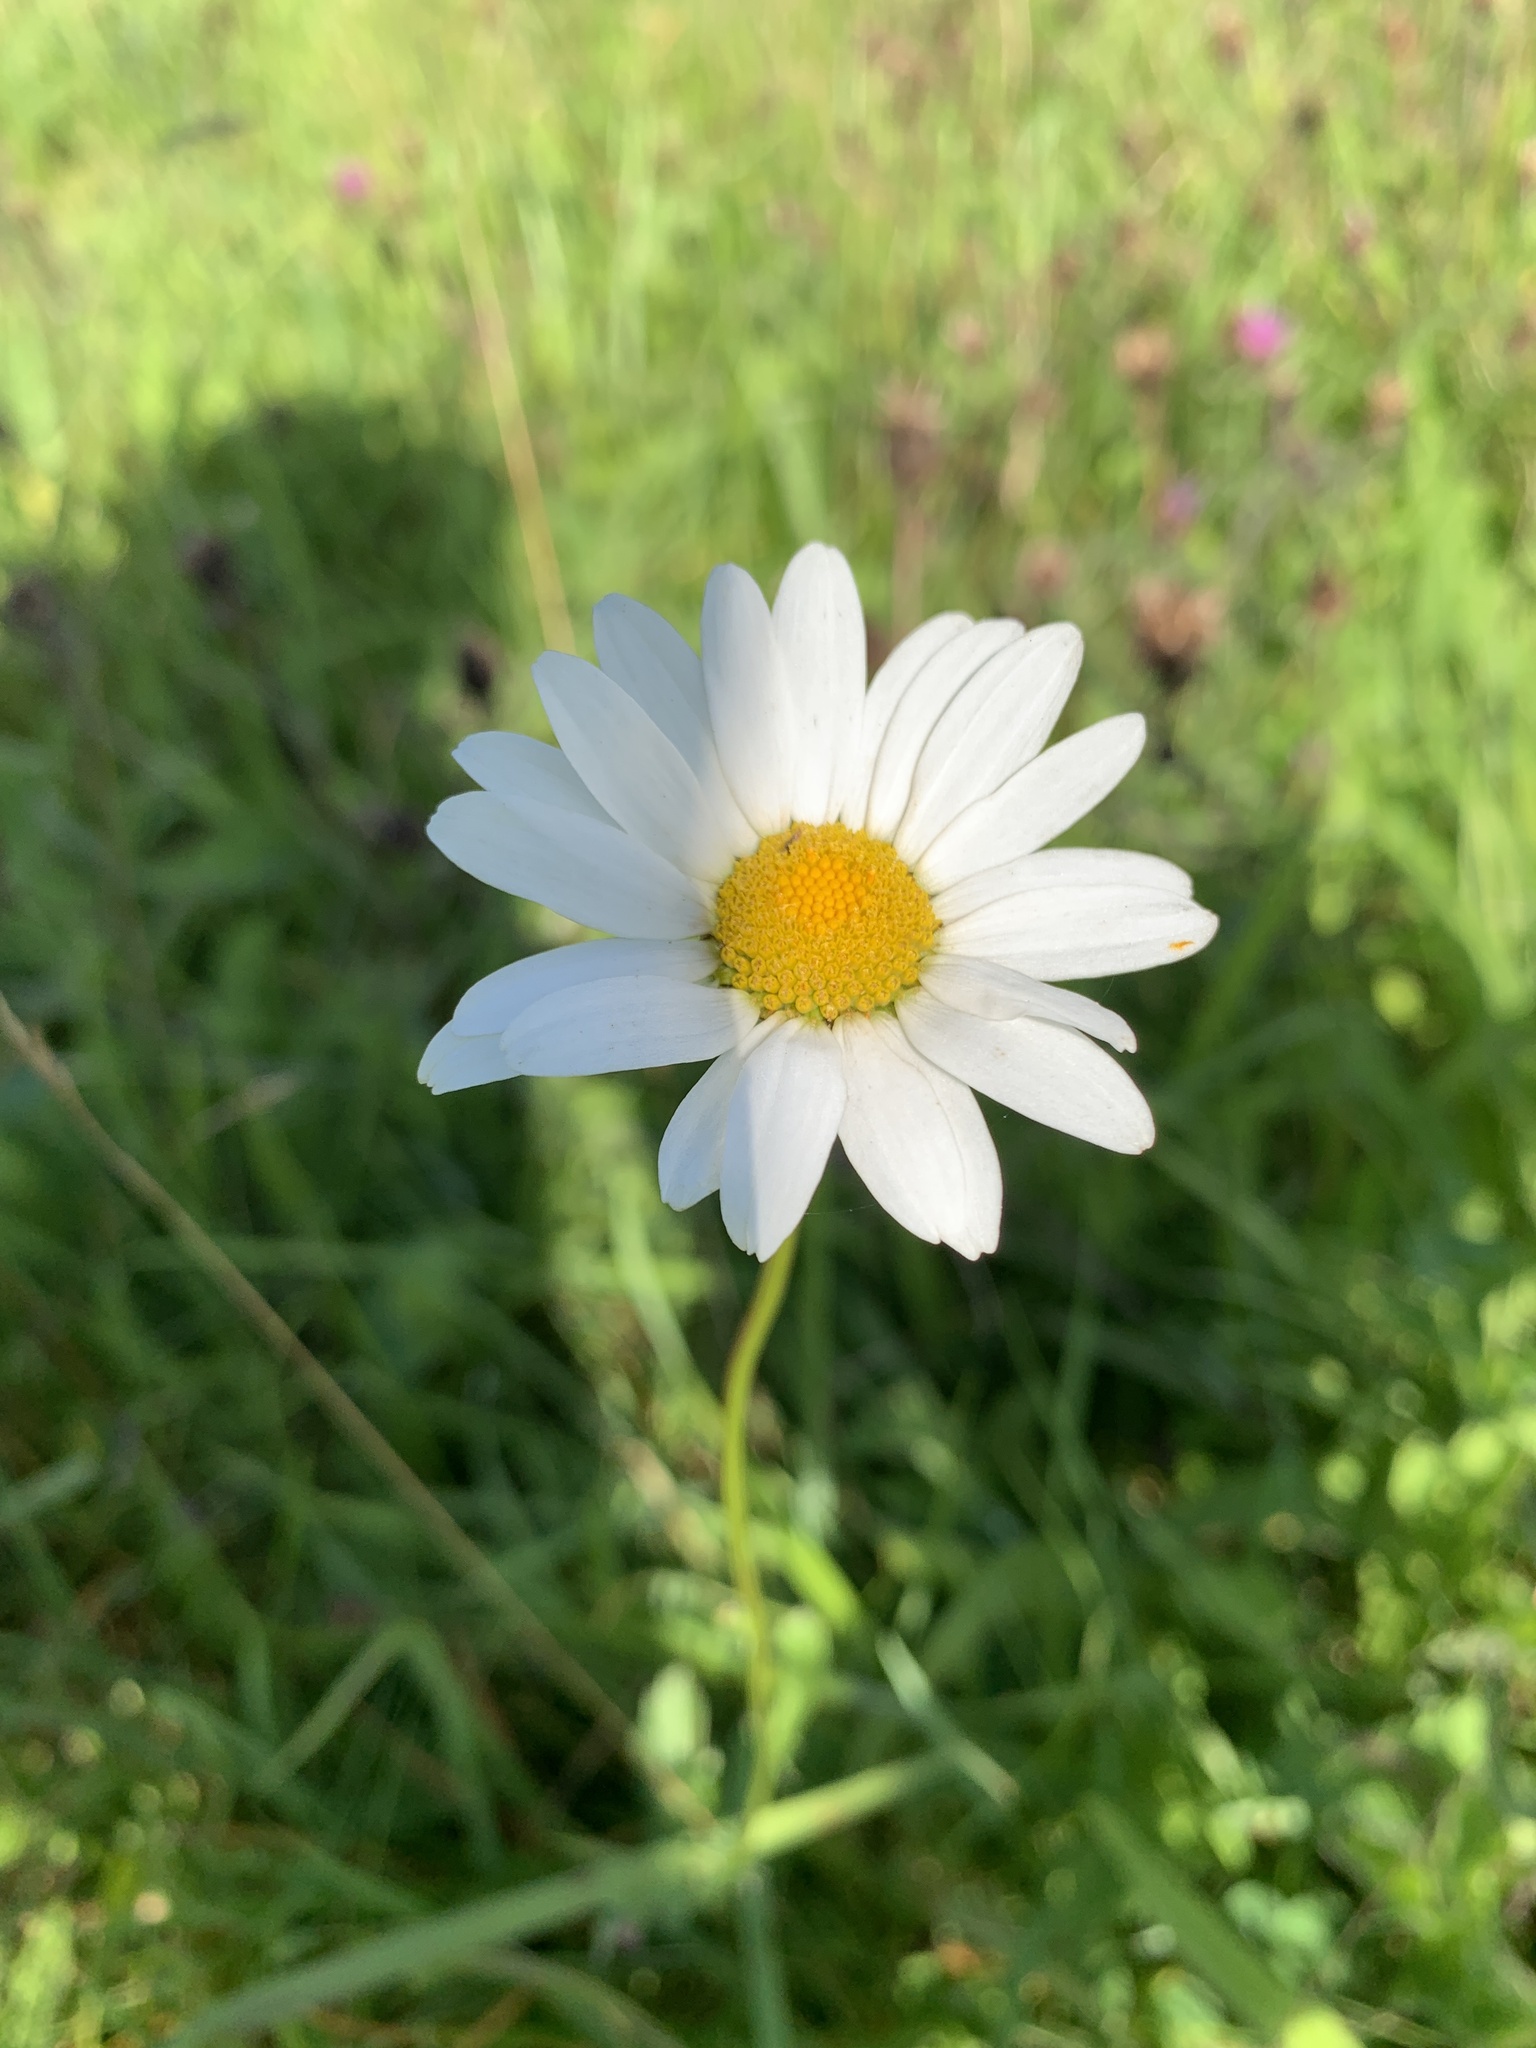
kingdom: Plantae
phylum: Tracheophyta
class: Magnoliopsida
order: Asterales
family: Asteraceae
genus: Leucanthemum
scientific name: Leucanthemum vulgare
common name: Oxeye daisy
